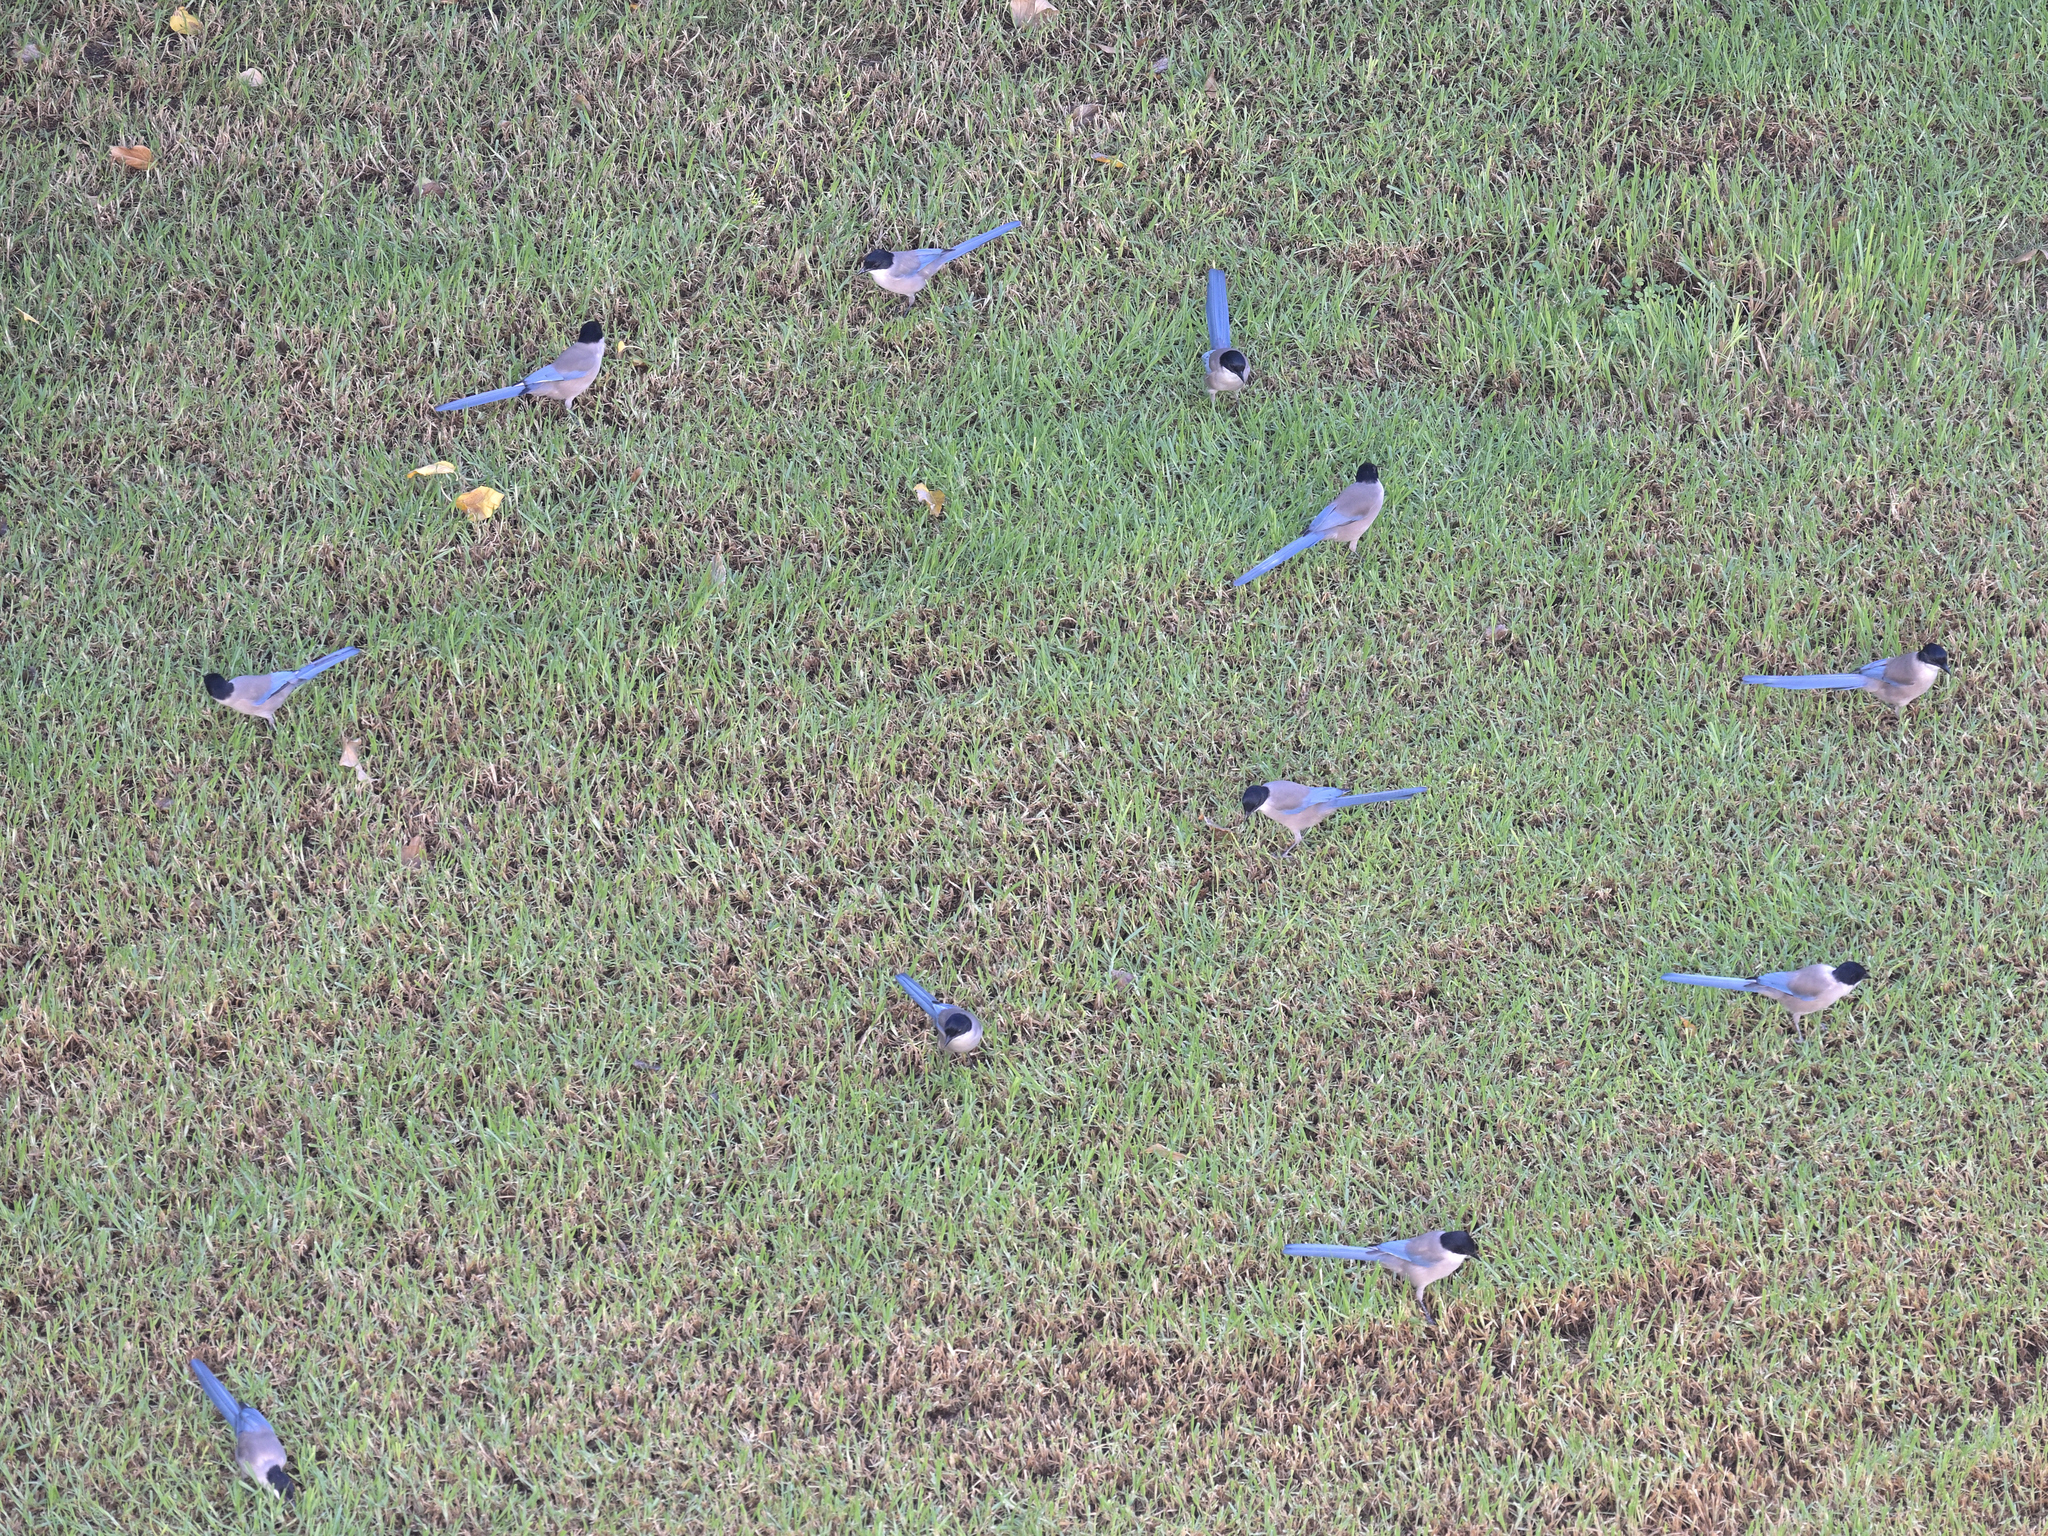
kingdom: Animalia
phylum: Chordata
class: Aves
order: Passeriformes
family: Corvidae
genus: Cyanopica
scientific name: Cyanopica cooki
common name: Iberian magpie
